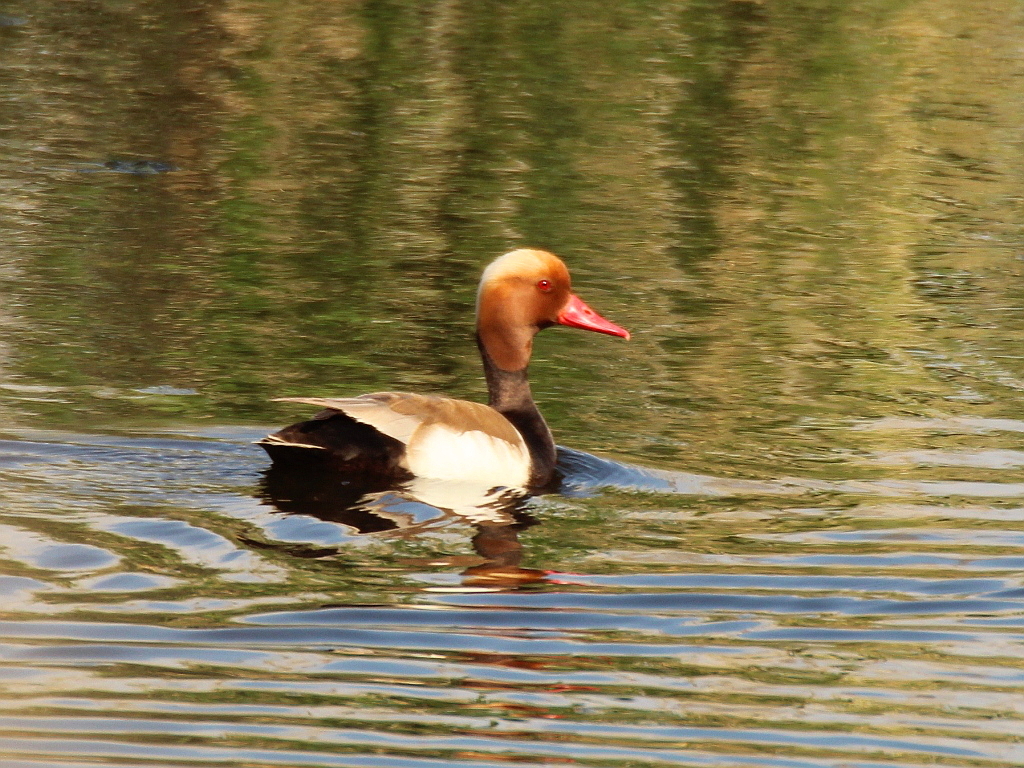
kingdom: Animalia
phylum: Chordata
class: Aves
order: Anseriformes
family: Anatidae
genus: Netta
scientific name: Netta rufina
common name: Red-crested pochard
